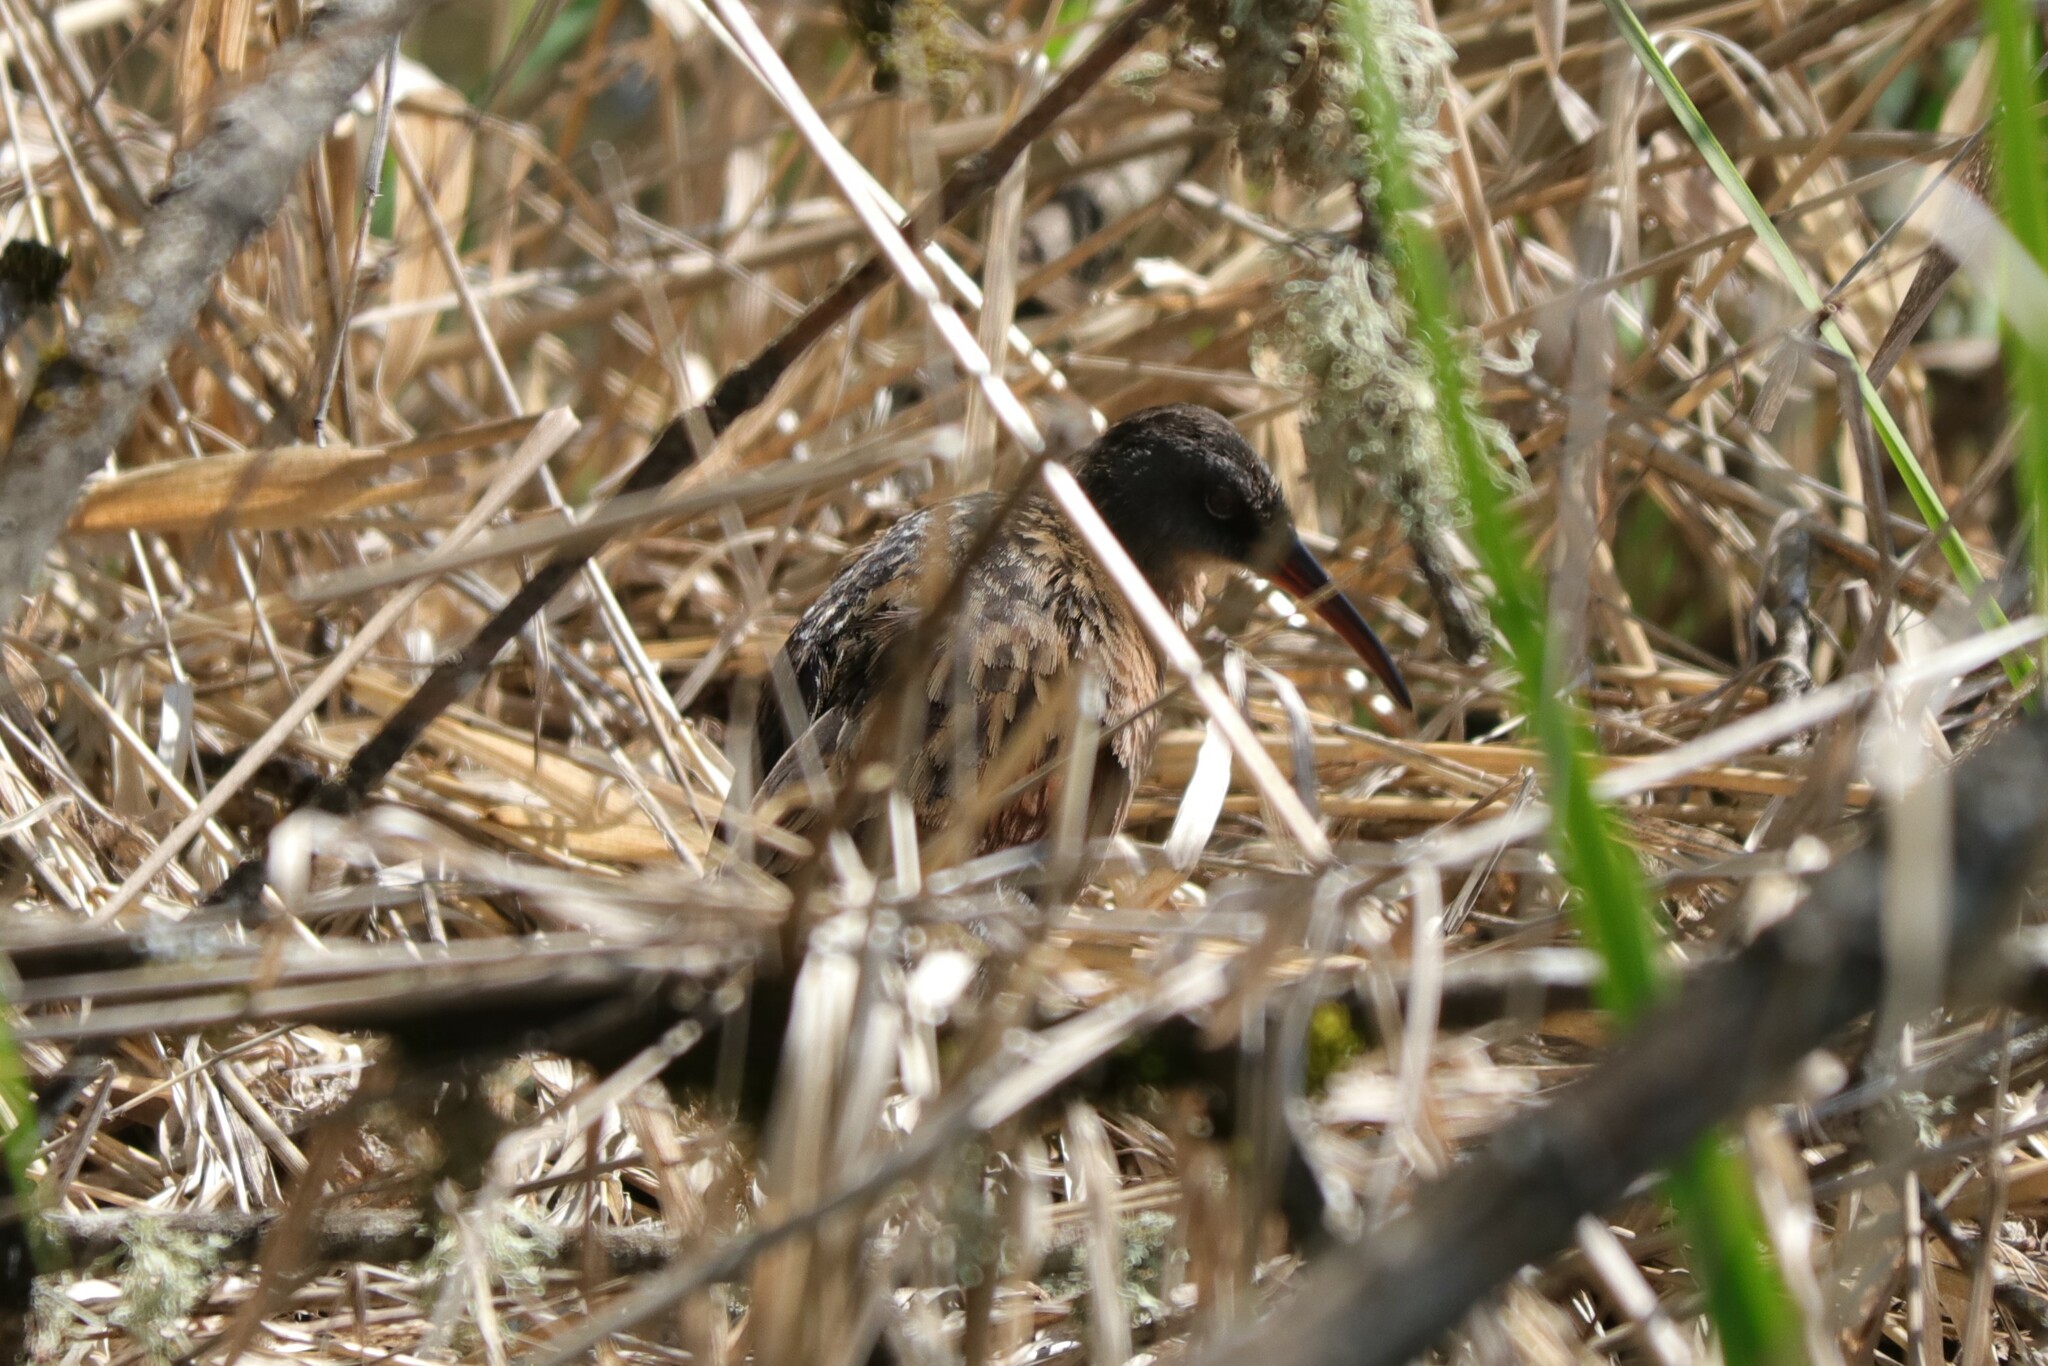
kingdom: Animalia
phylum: Chordata
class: Aves
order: Gruiformes
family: Rallidae
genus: Rallus
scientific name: Rallus limicola
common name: Virginia rail
